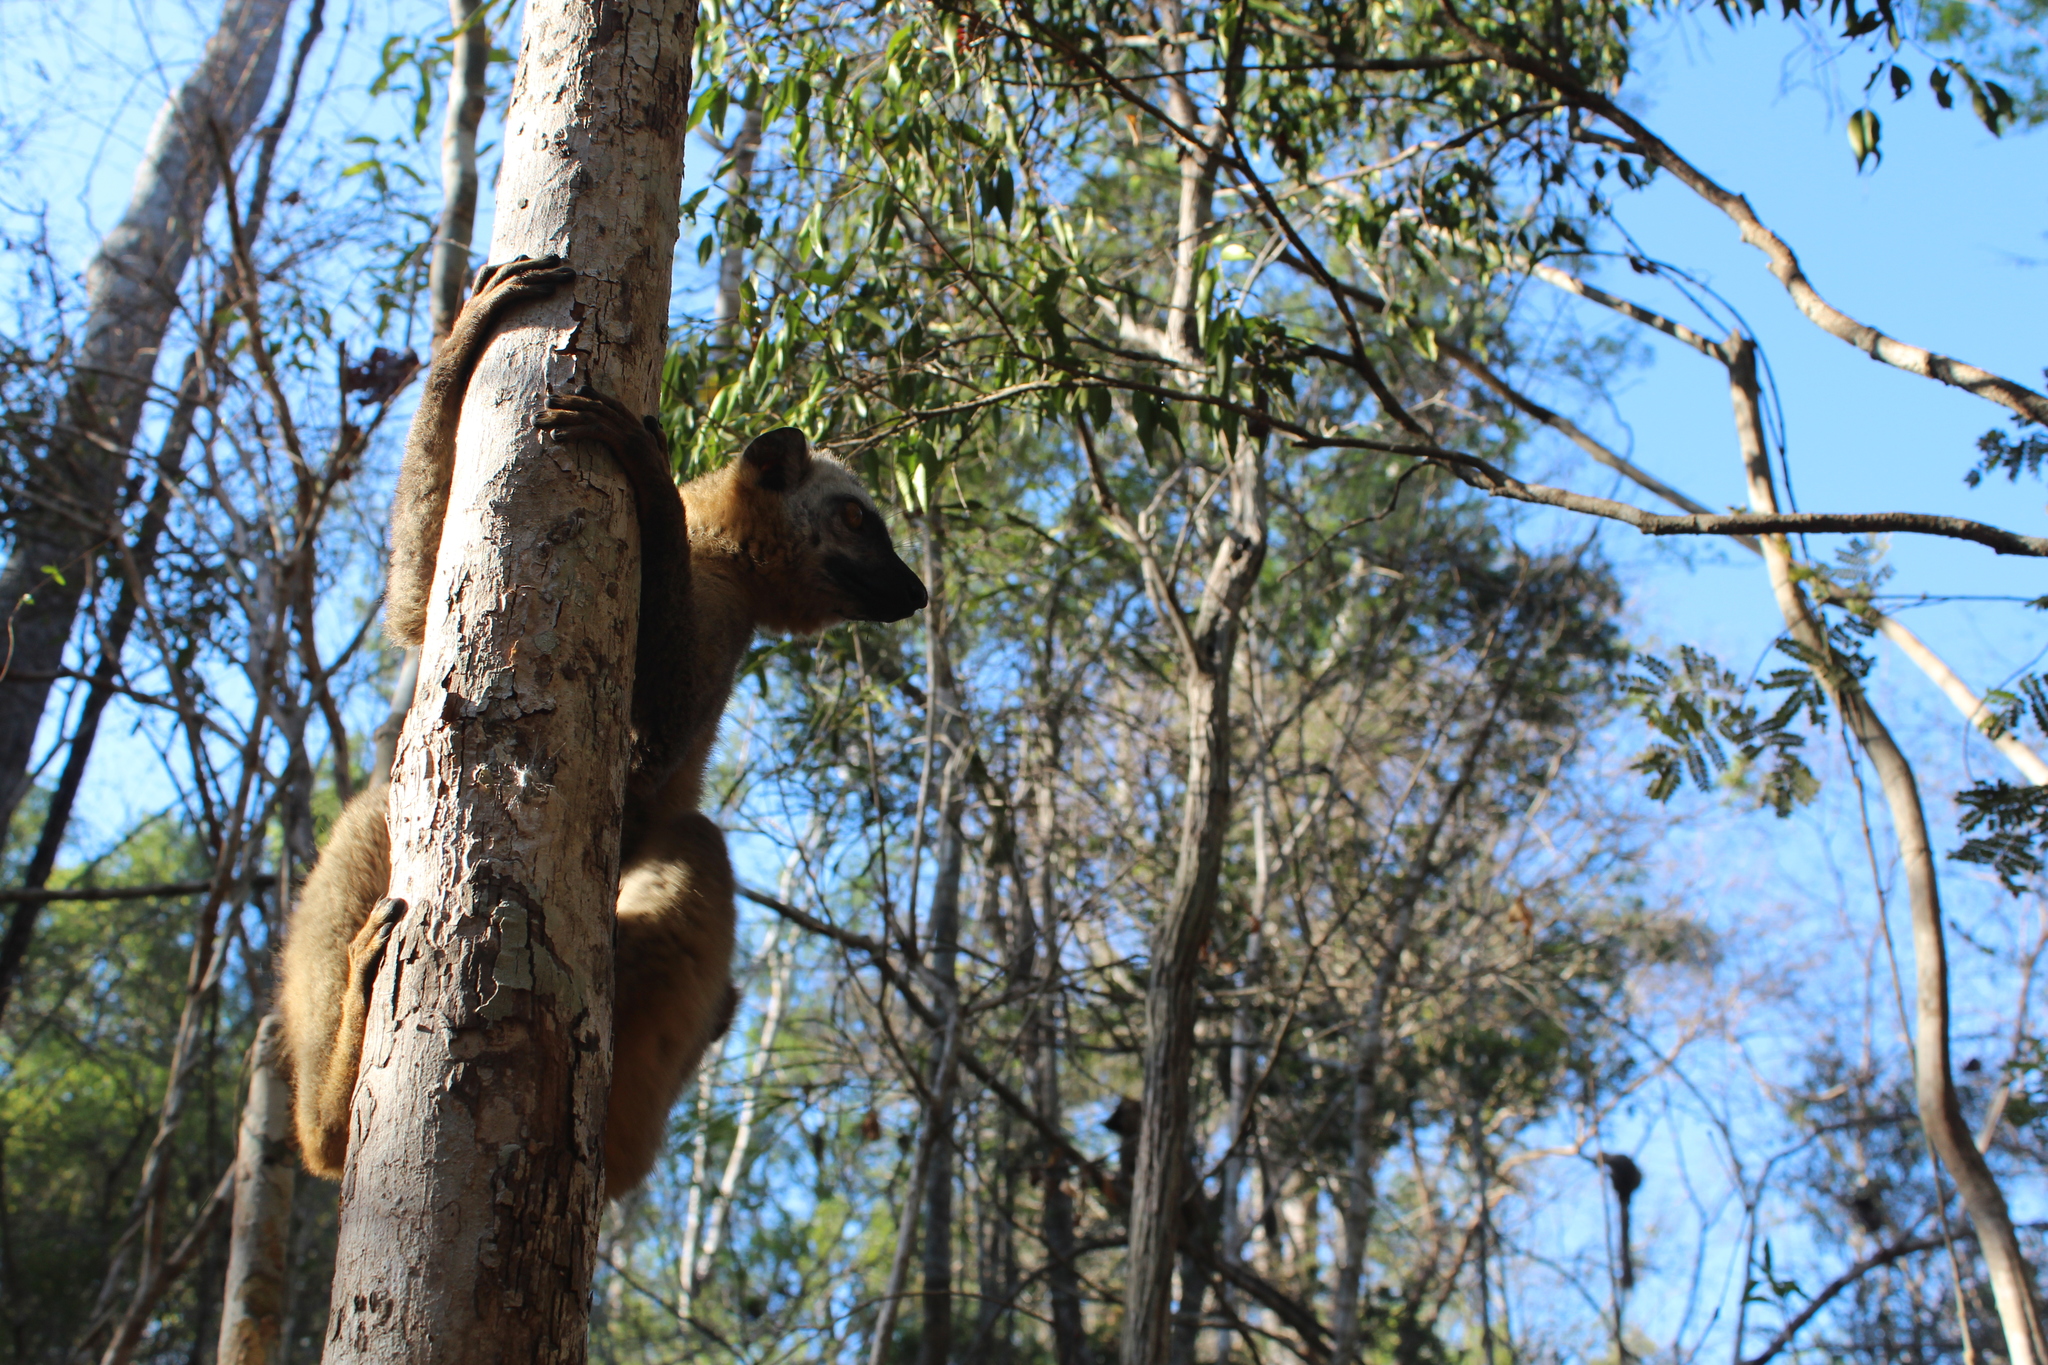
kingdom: Animalia
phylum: Chordata
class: Mammalia
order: Primates
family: Lemuridae
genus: Eulemur
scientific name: Eulemur rufifrons
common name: Red-fronted brown lemur
